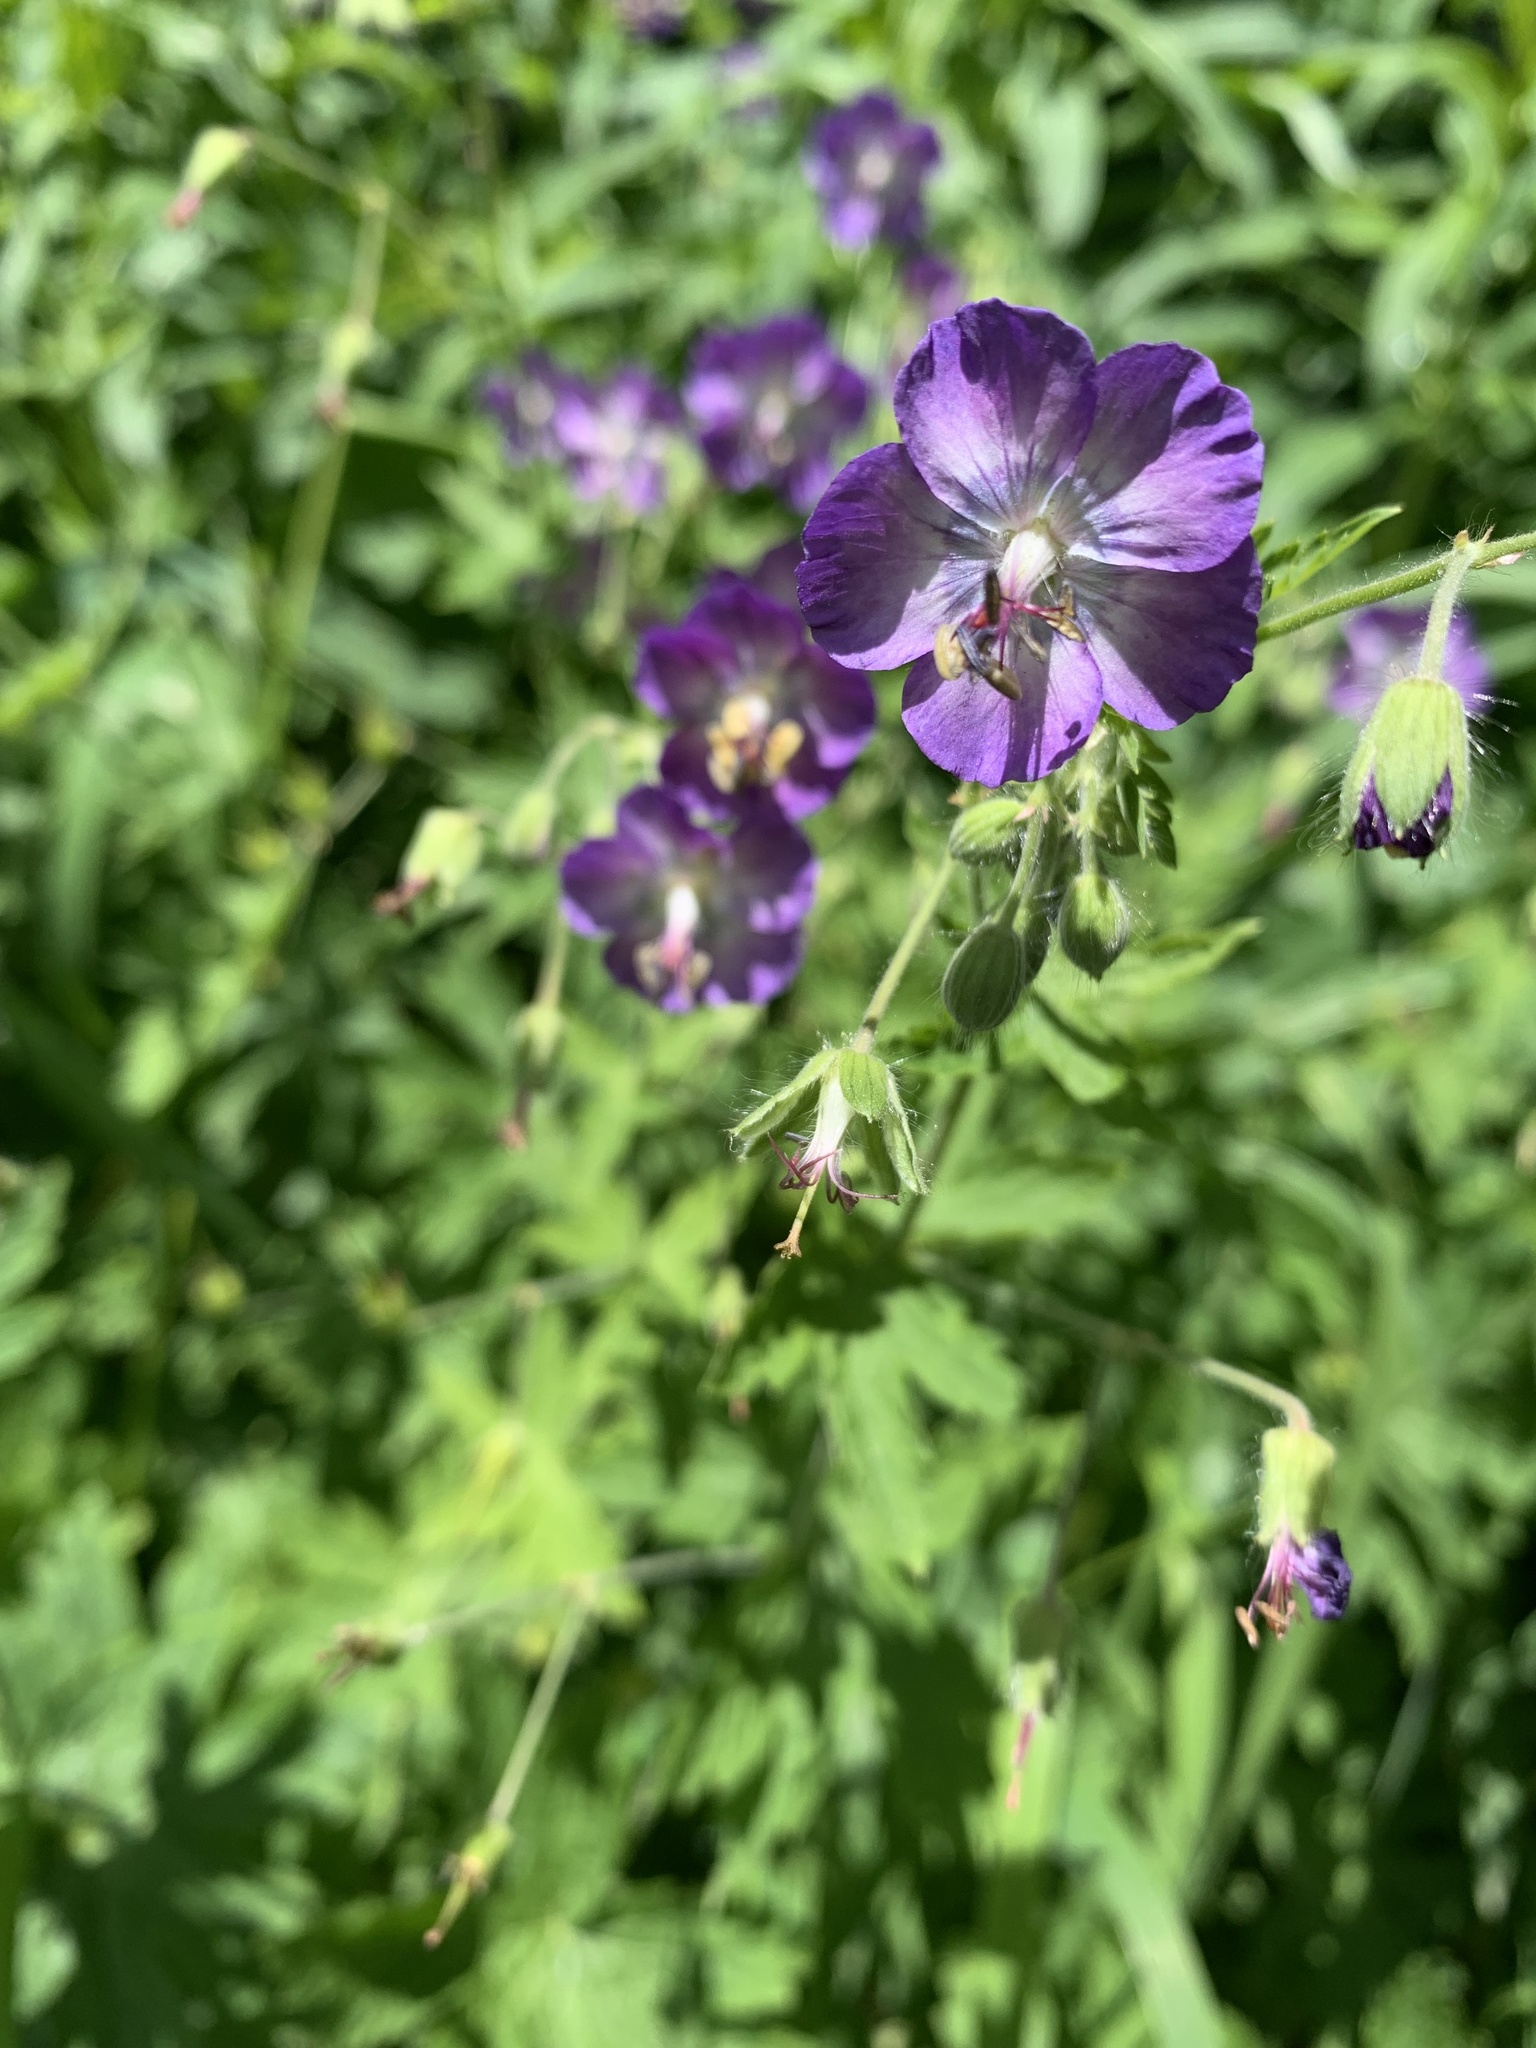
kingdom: Plantae
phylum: Tracheophyta
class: Magnoliopsida
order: Geraniales
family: Geraniaceae
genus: Geranium
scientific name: Geranium phaeum
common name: Dusky crane's-bill
